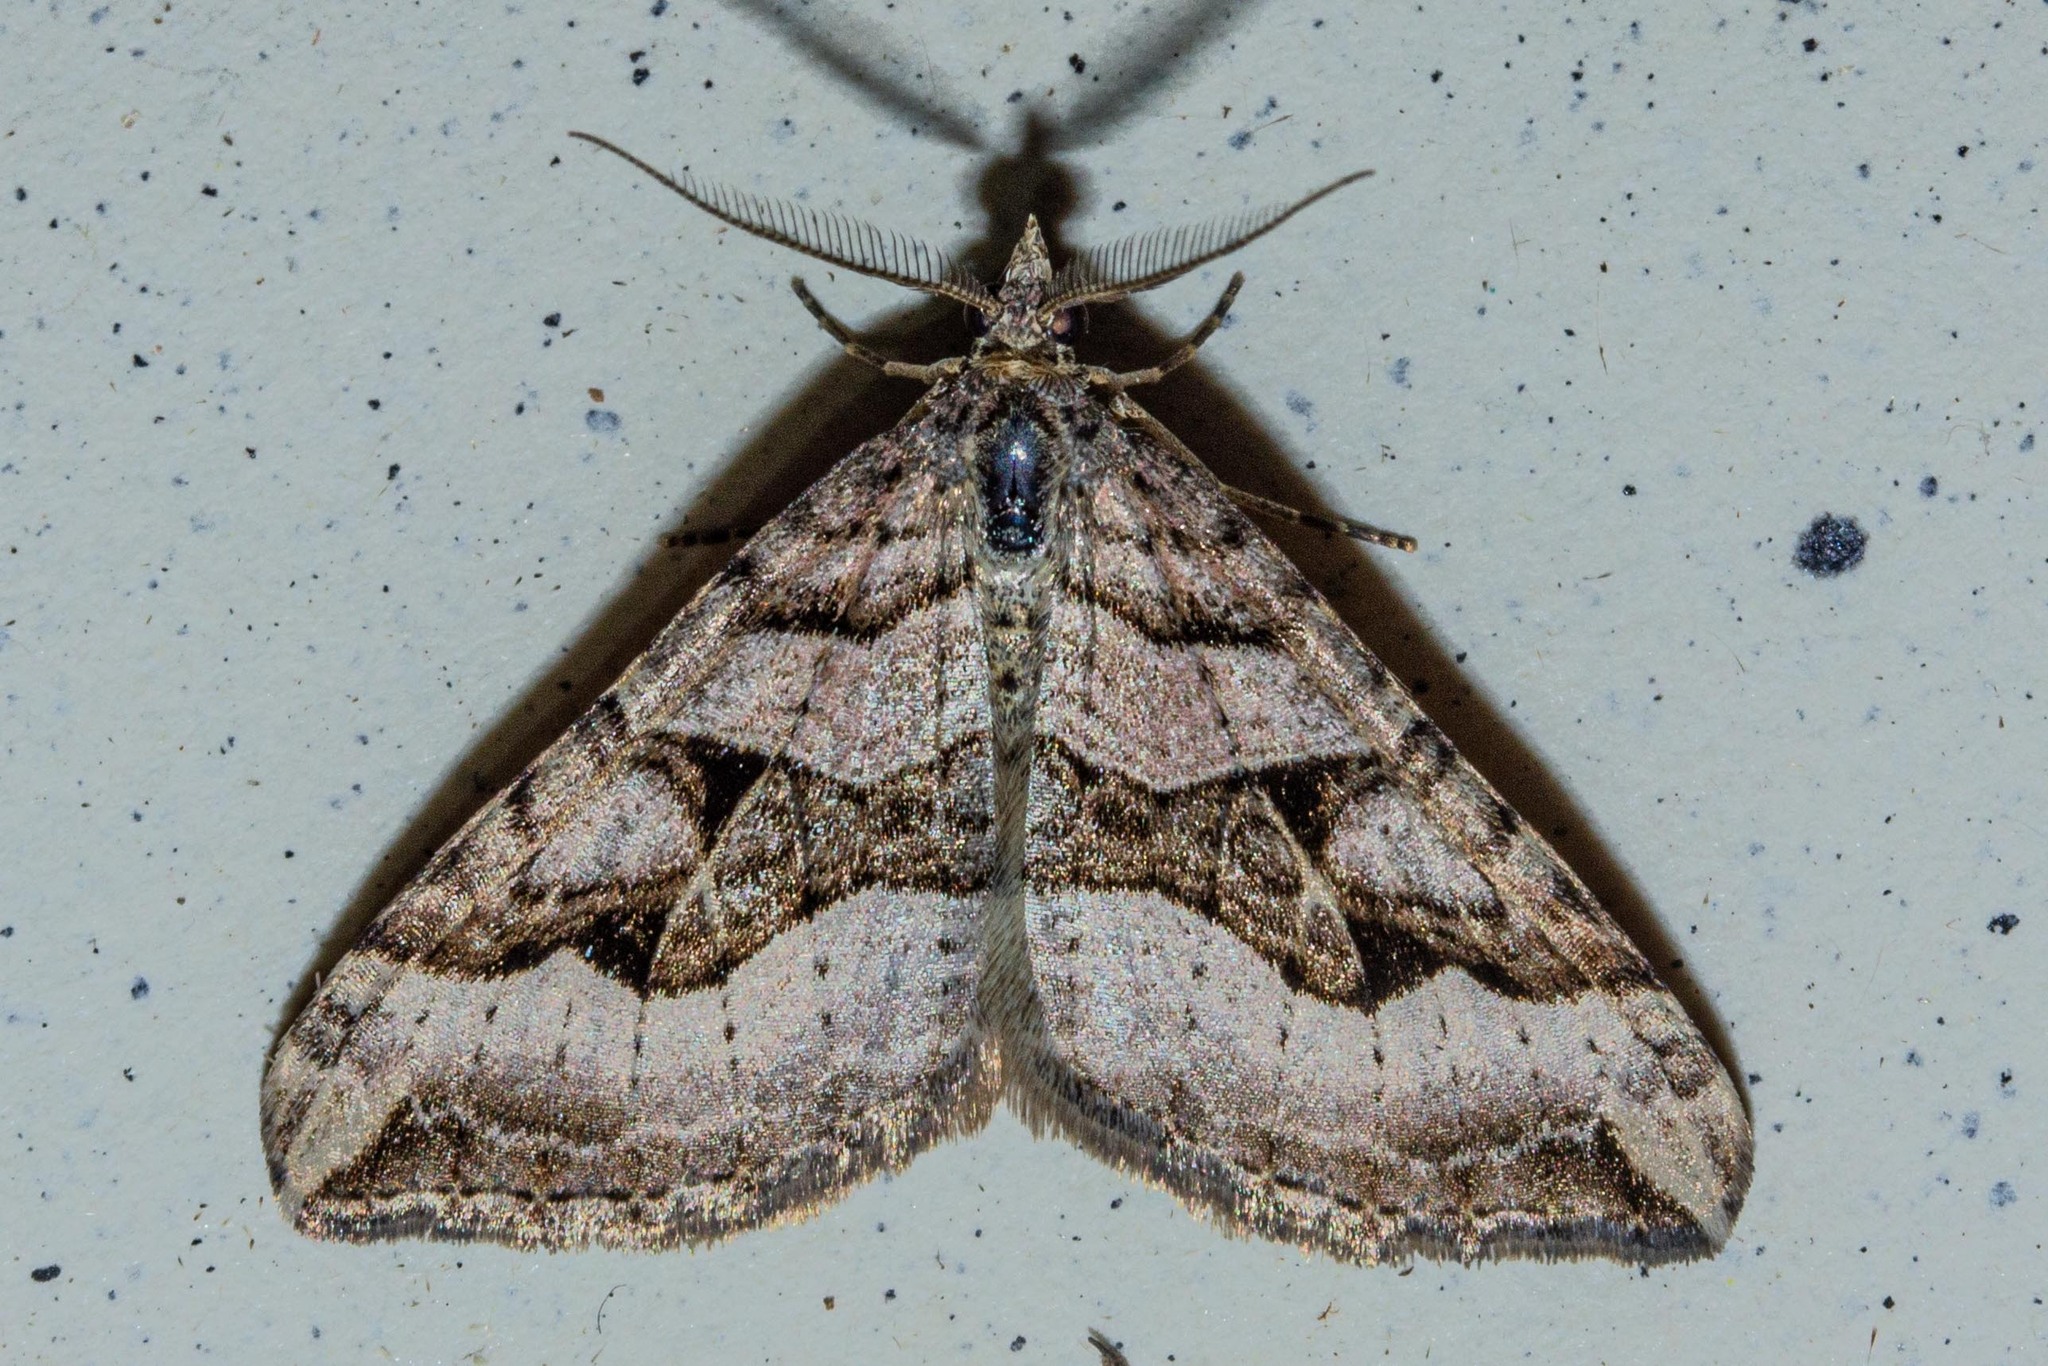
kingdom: Animalia
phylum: Arthropoda
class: Insecta
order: Lepidoptera
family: Geometridae
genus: Xanthorhoe
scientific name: Xanthorhoe semifissata
